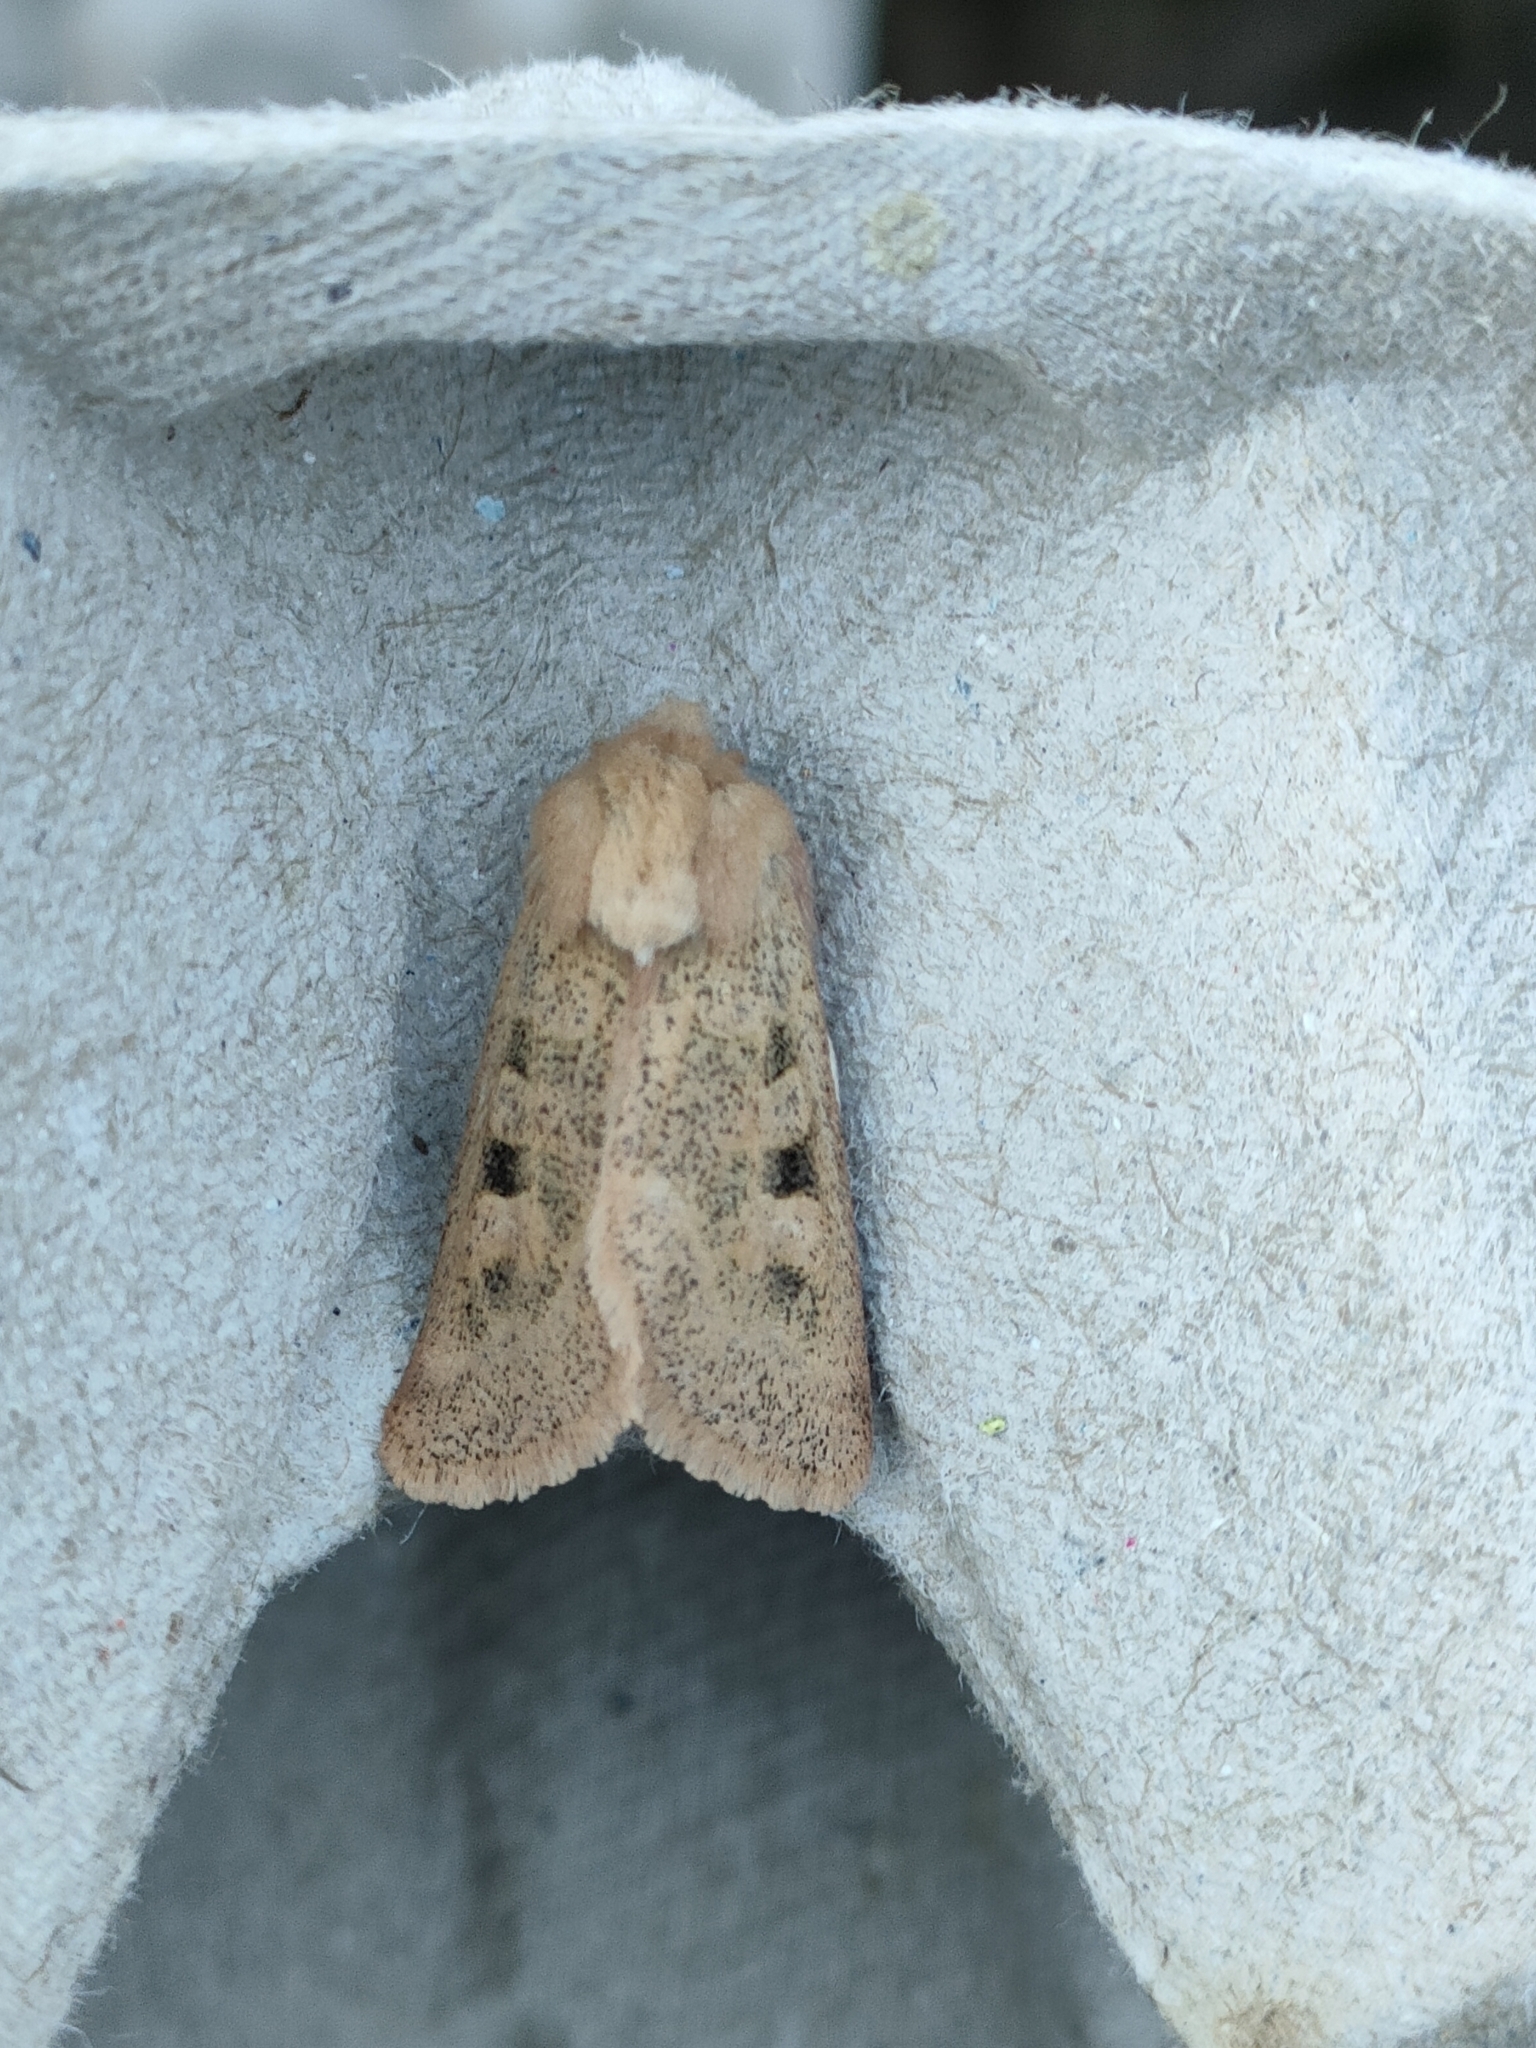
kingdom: Animalia
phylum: Arthropoda
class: Insecta
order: Lepidoptera
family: Noctuidae
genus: Episema
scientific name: Episema glaucina
